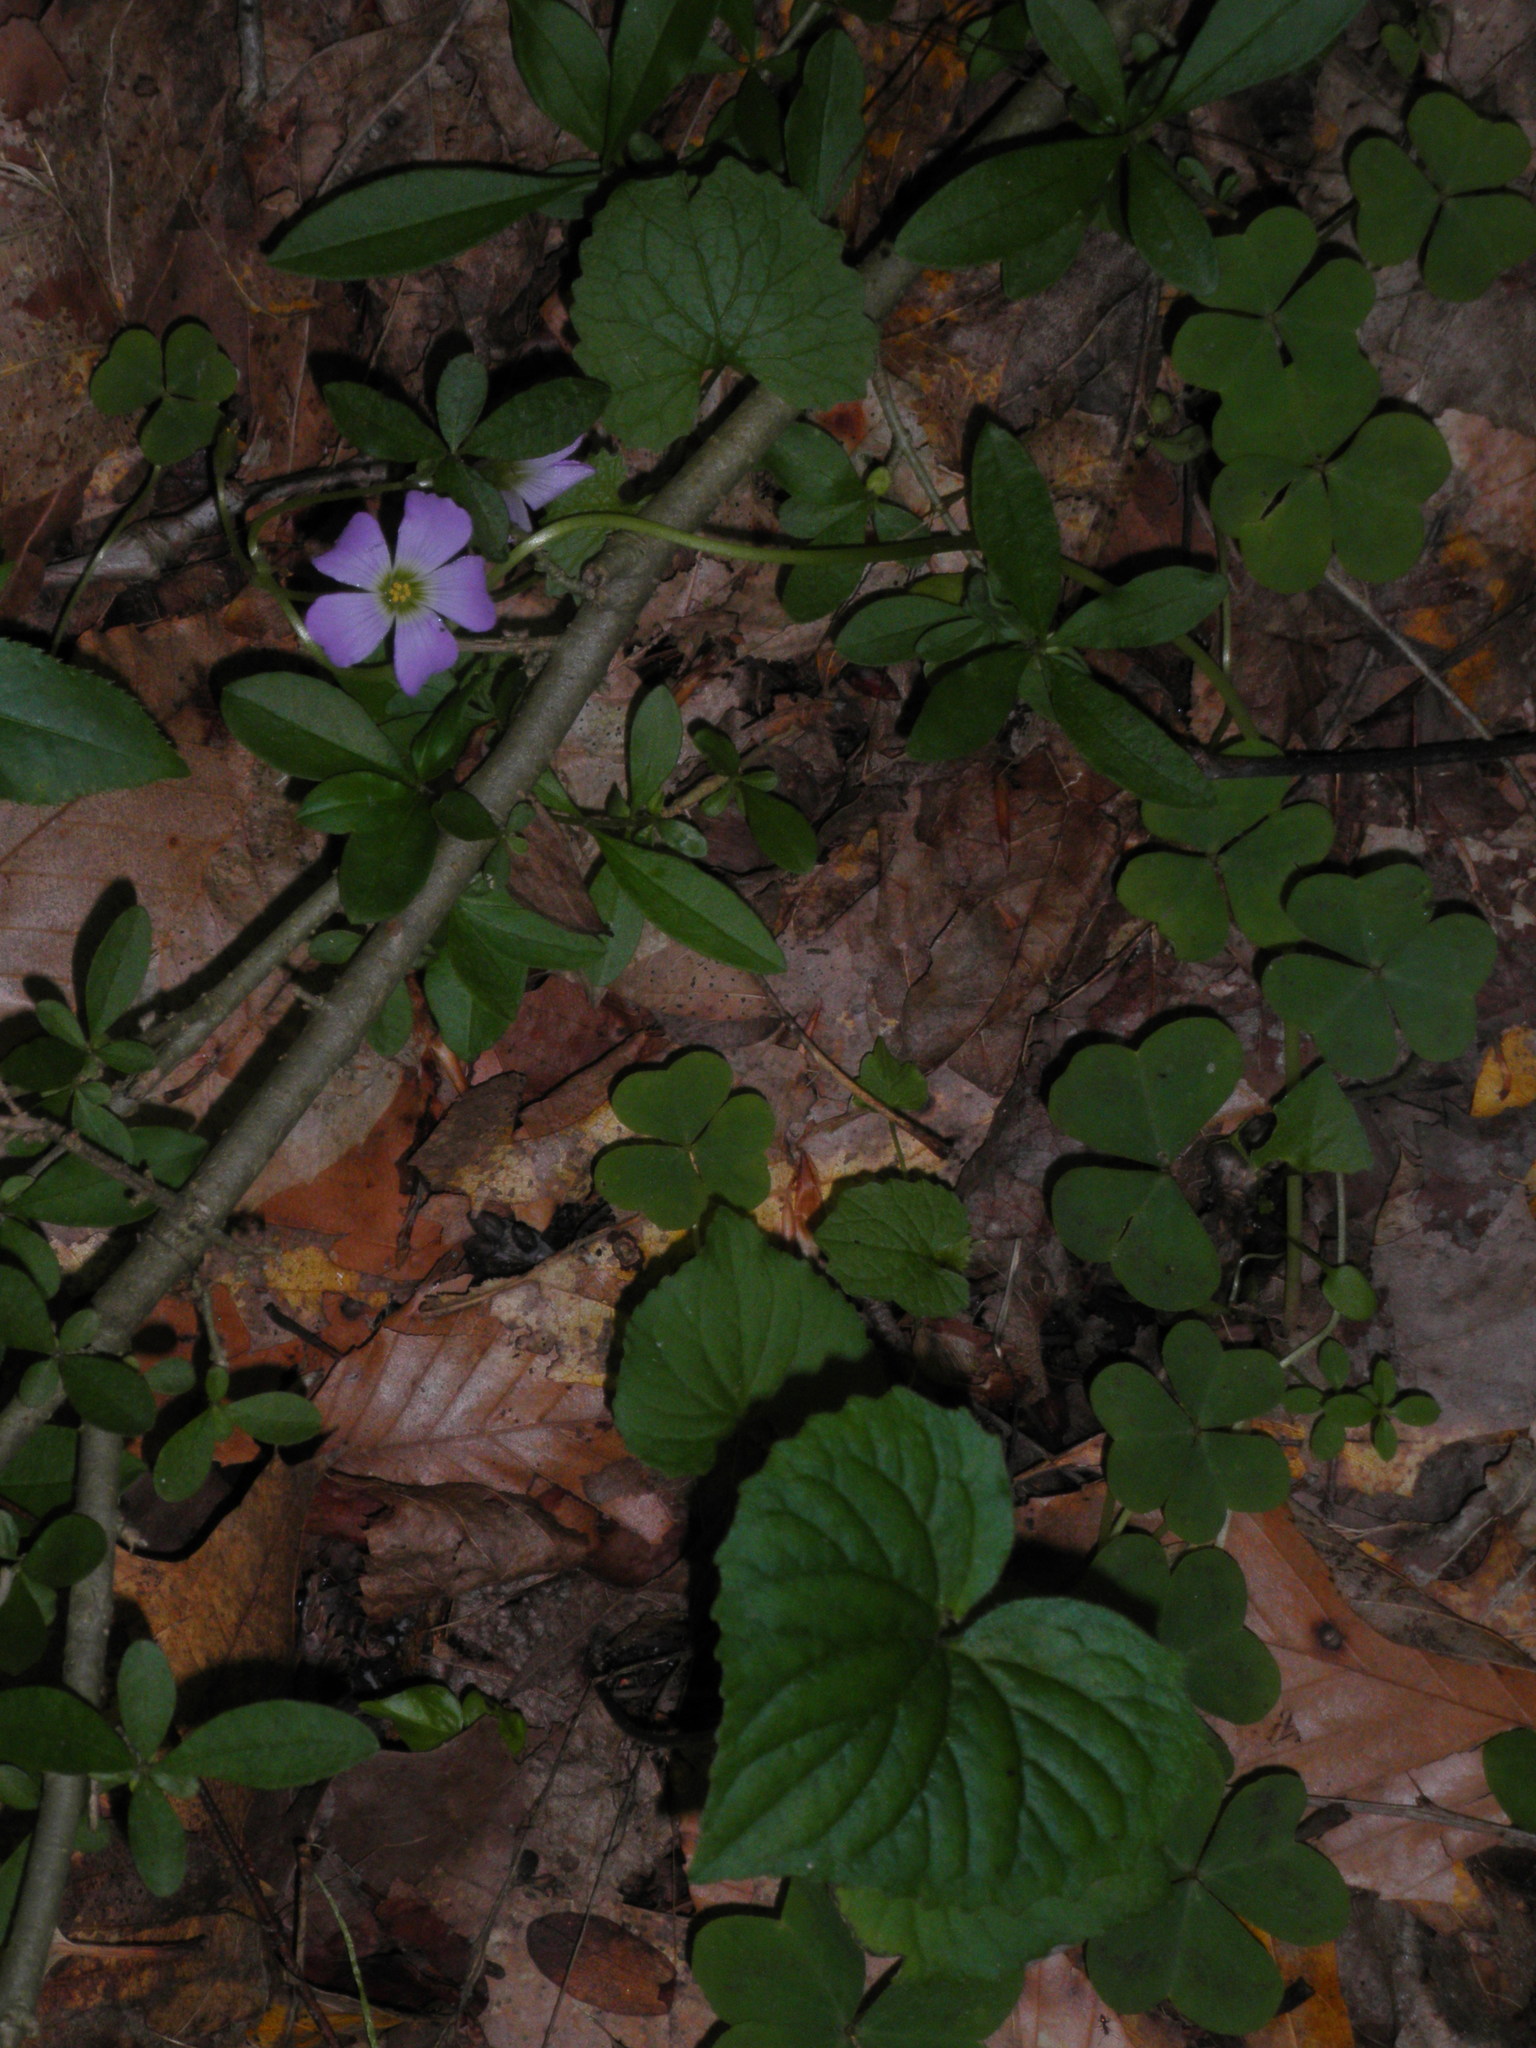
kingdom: Plantae
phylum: Tracheophyta
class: Magnoliopsida
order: Oxalidales
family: Oxalidaceae
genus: Oxalis
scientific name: Oxalis violacea
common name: Violet wood-sorrel
